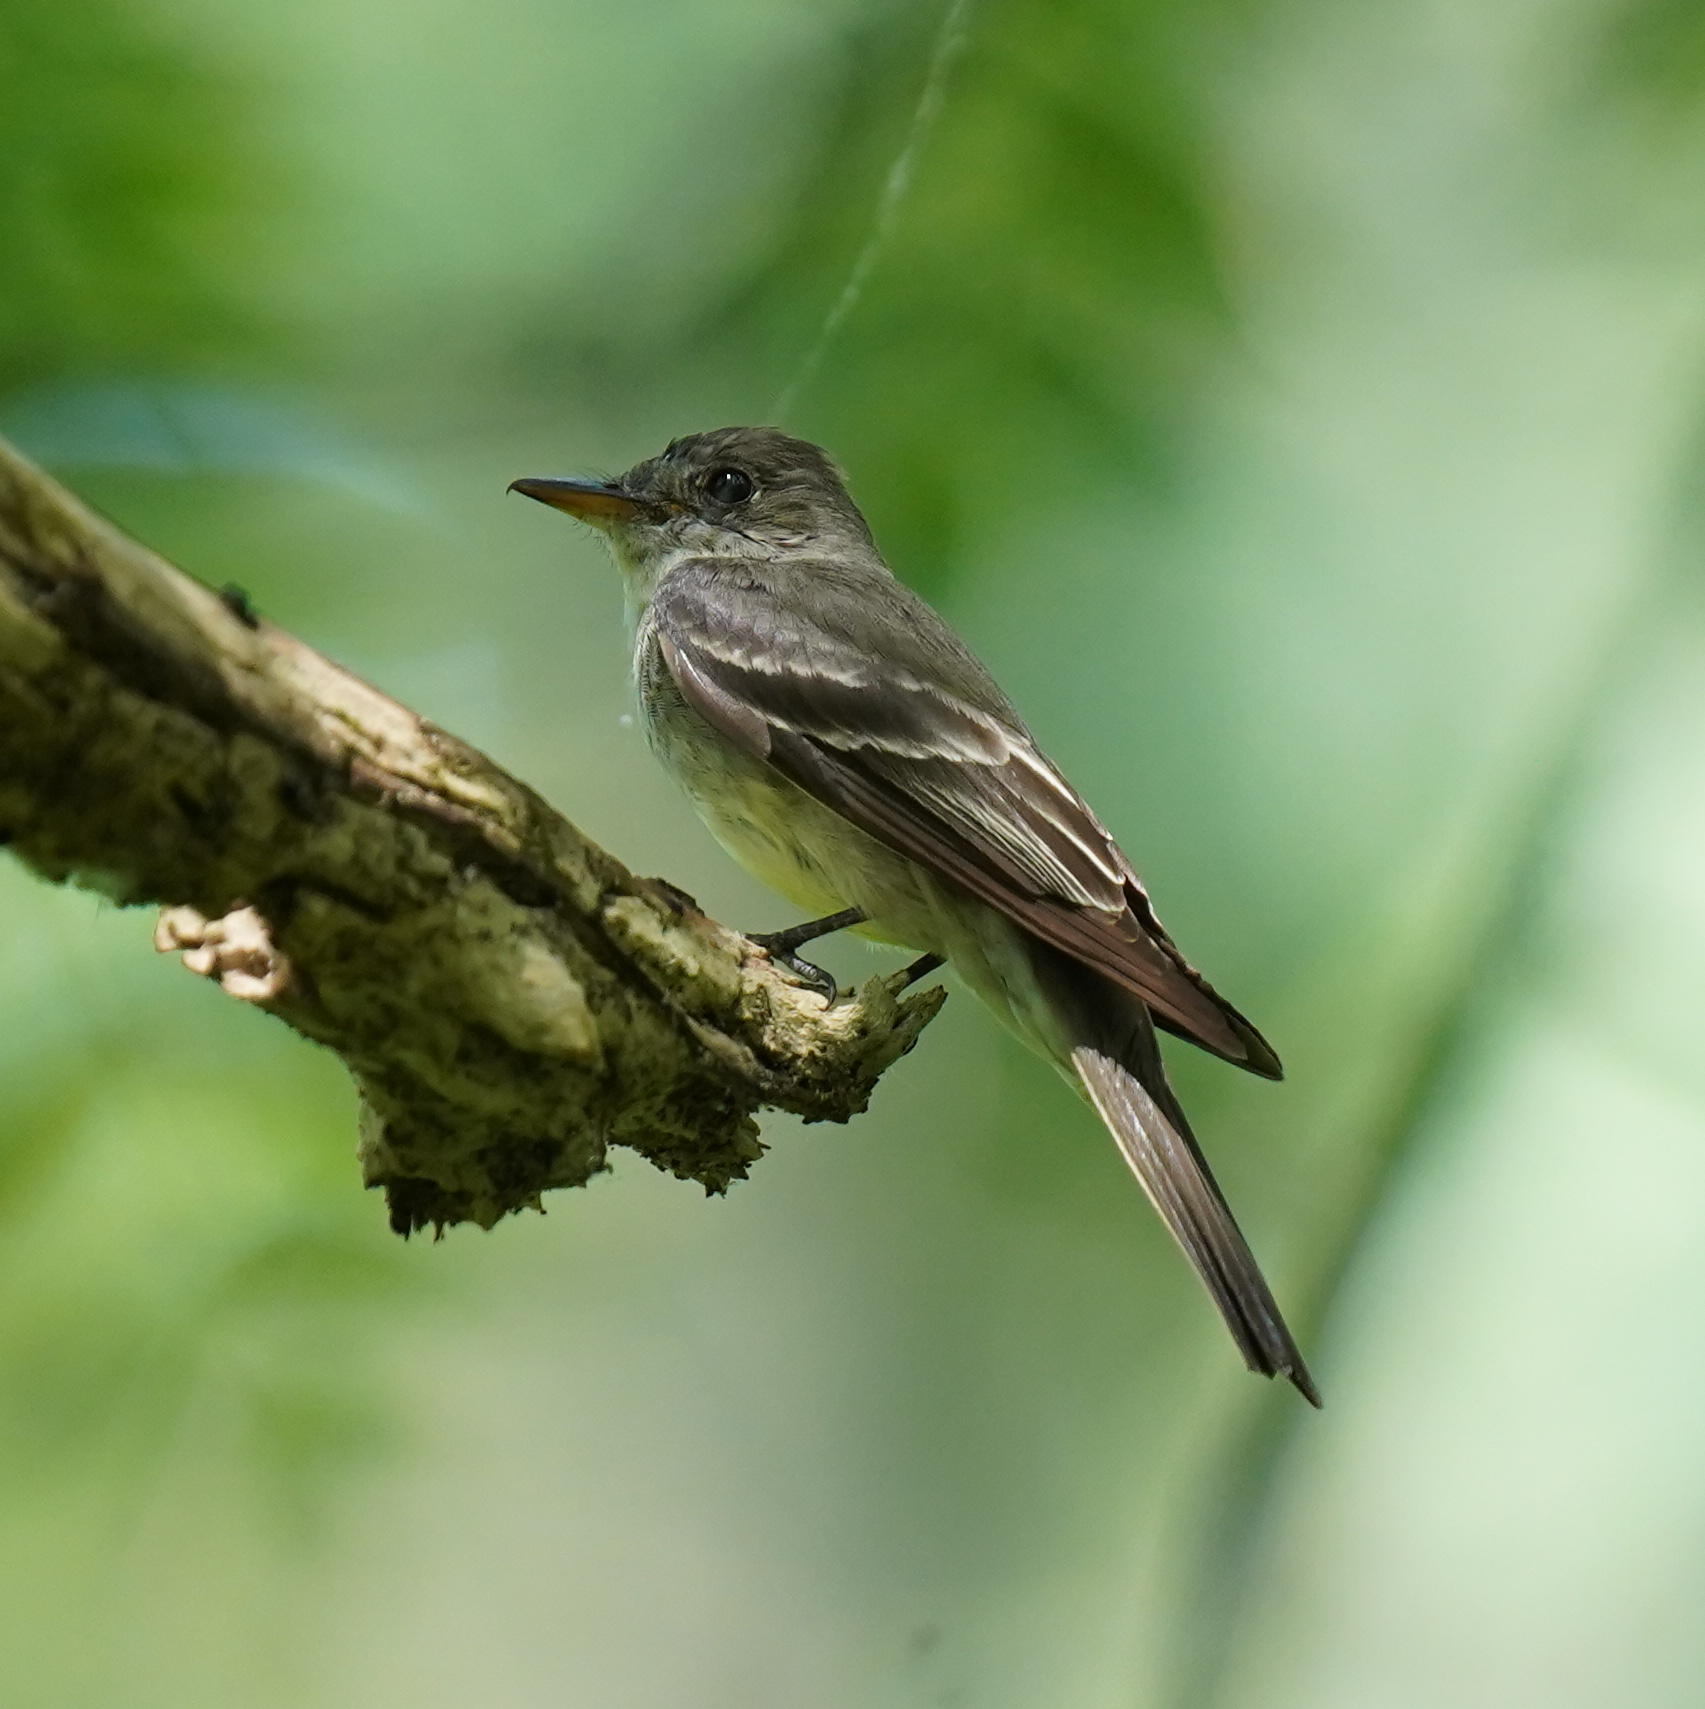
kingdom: Animalia
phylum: Chordata
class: Aves
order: Passeriformes
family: Tyrannidae
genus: Contopus
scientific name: Contopus virens
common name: Eastern wood-pewee
